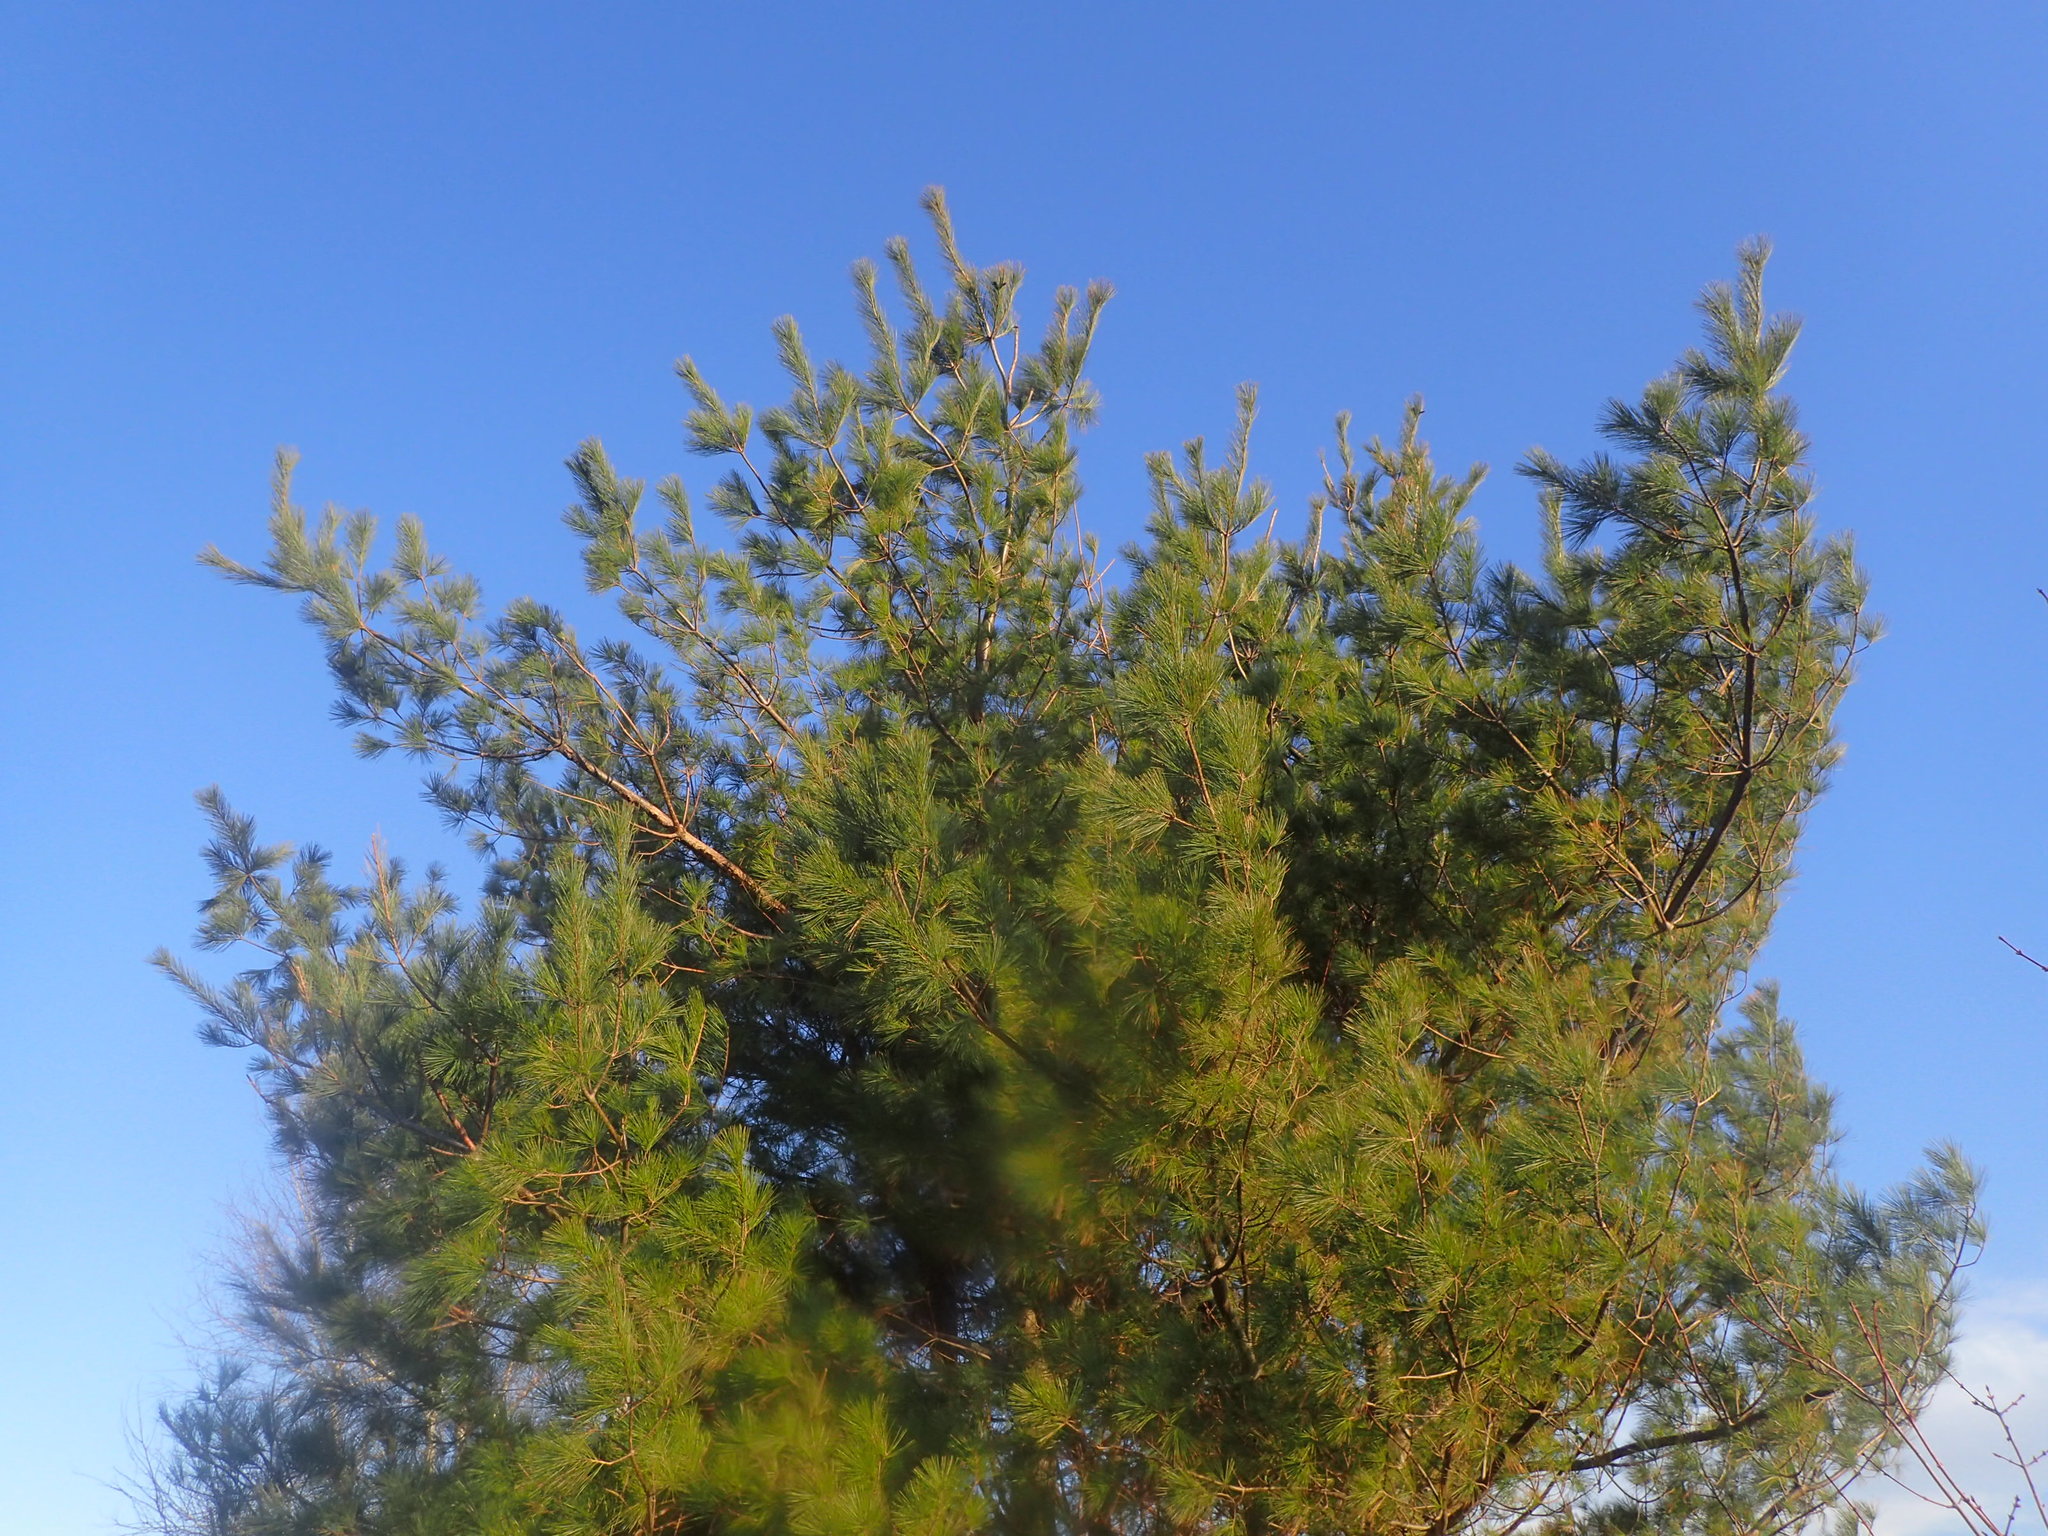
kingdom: Plantae
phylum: Tracheophyta
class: Pinopsida
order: Pinales
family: Pinaceae
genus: Pinus
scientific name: Pinus strobus
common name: Weymouth pine
